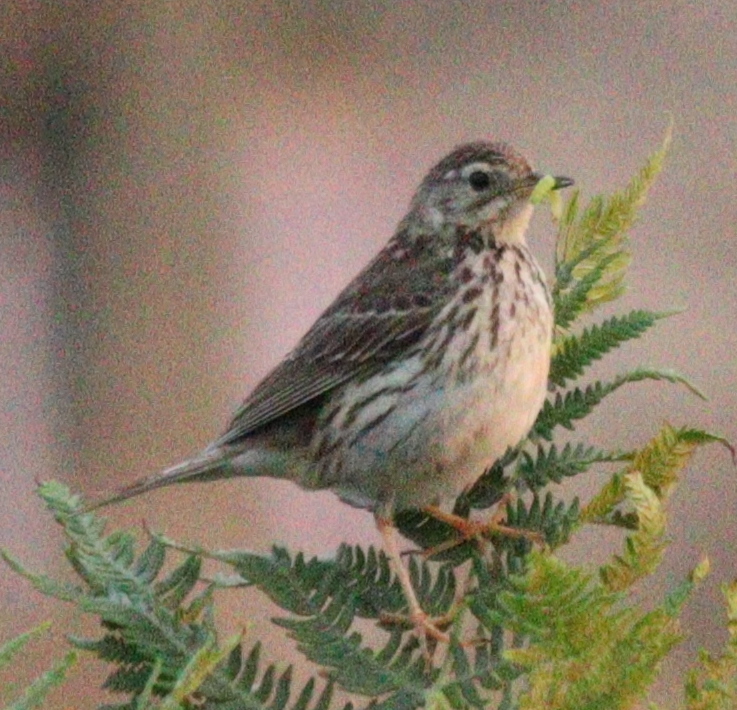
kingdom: Animalia
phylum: Chordata
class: Aves
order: Passeriformes
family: Motacillidae
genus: Anthus
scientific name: Anthus pratensis
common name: Meadow pipit
